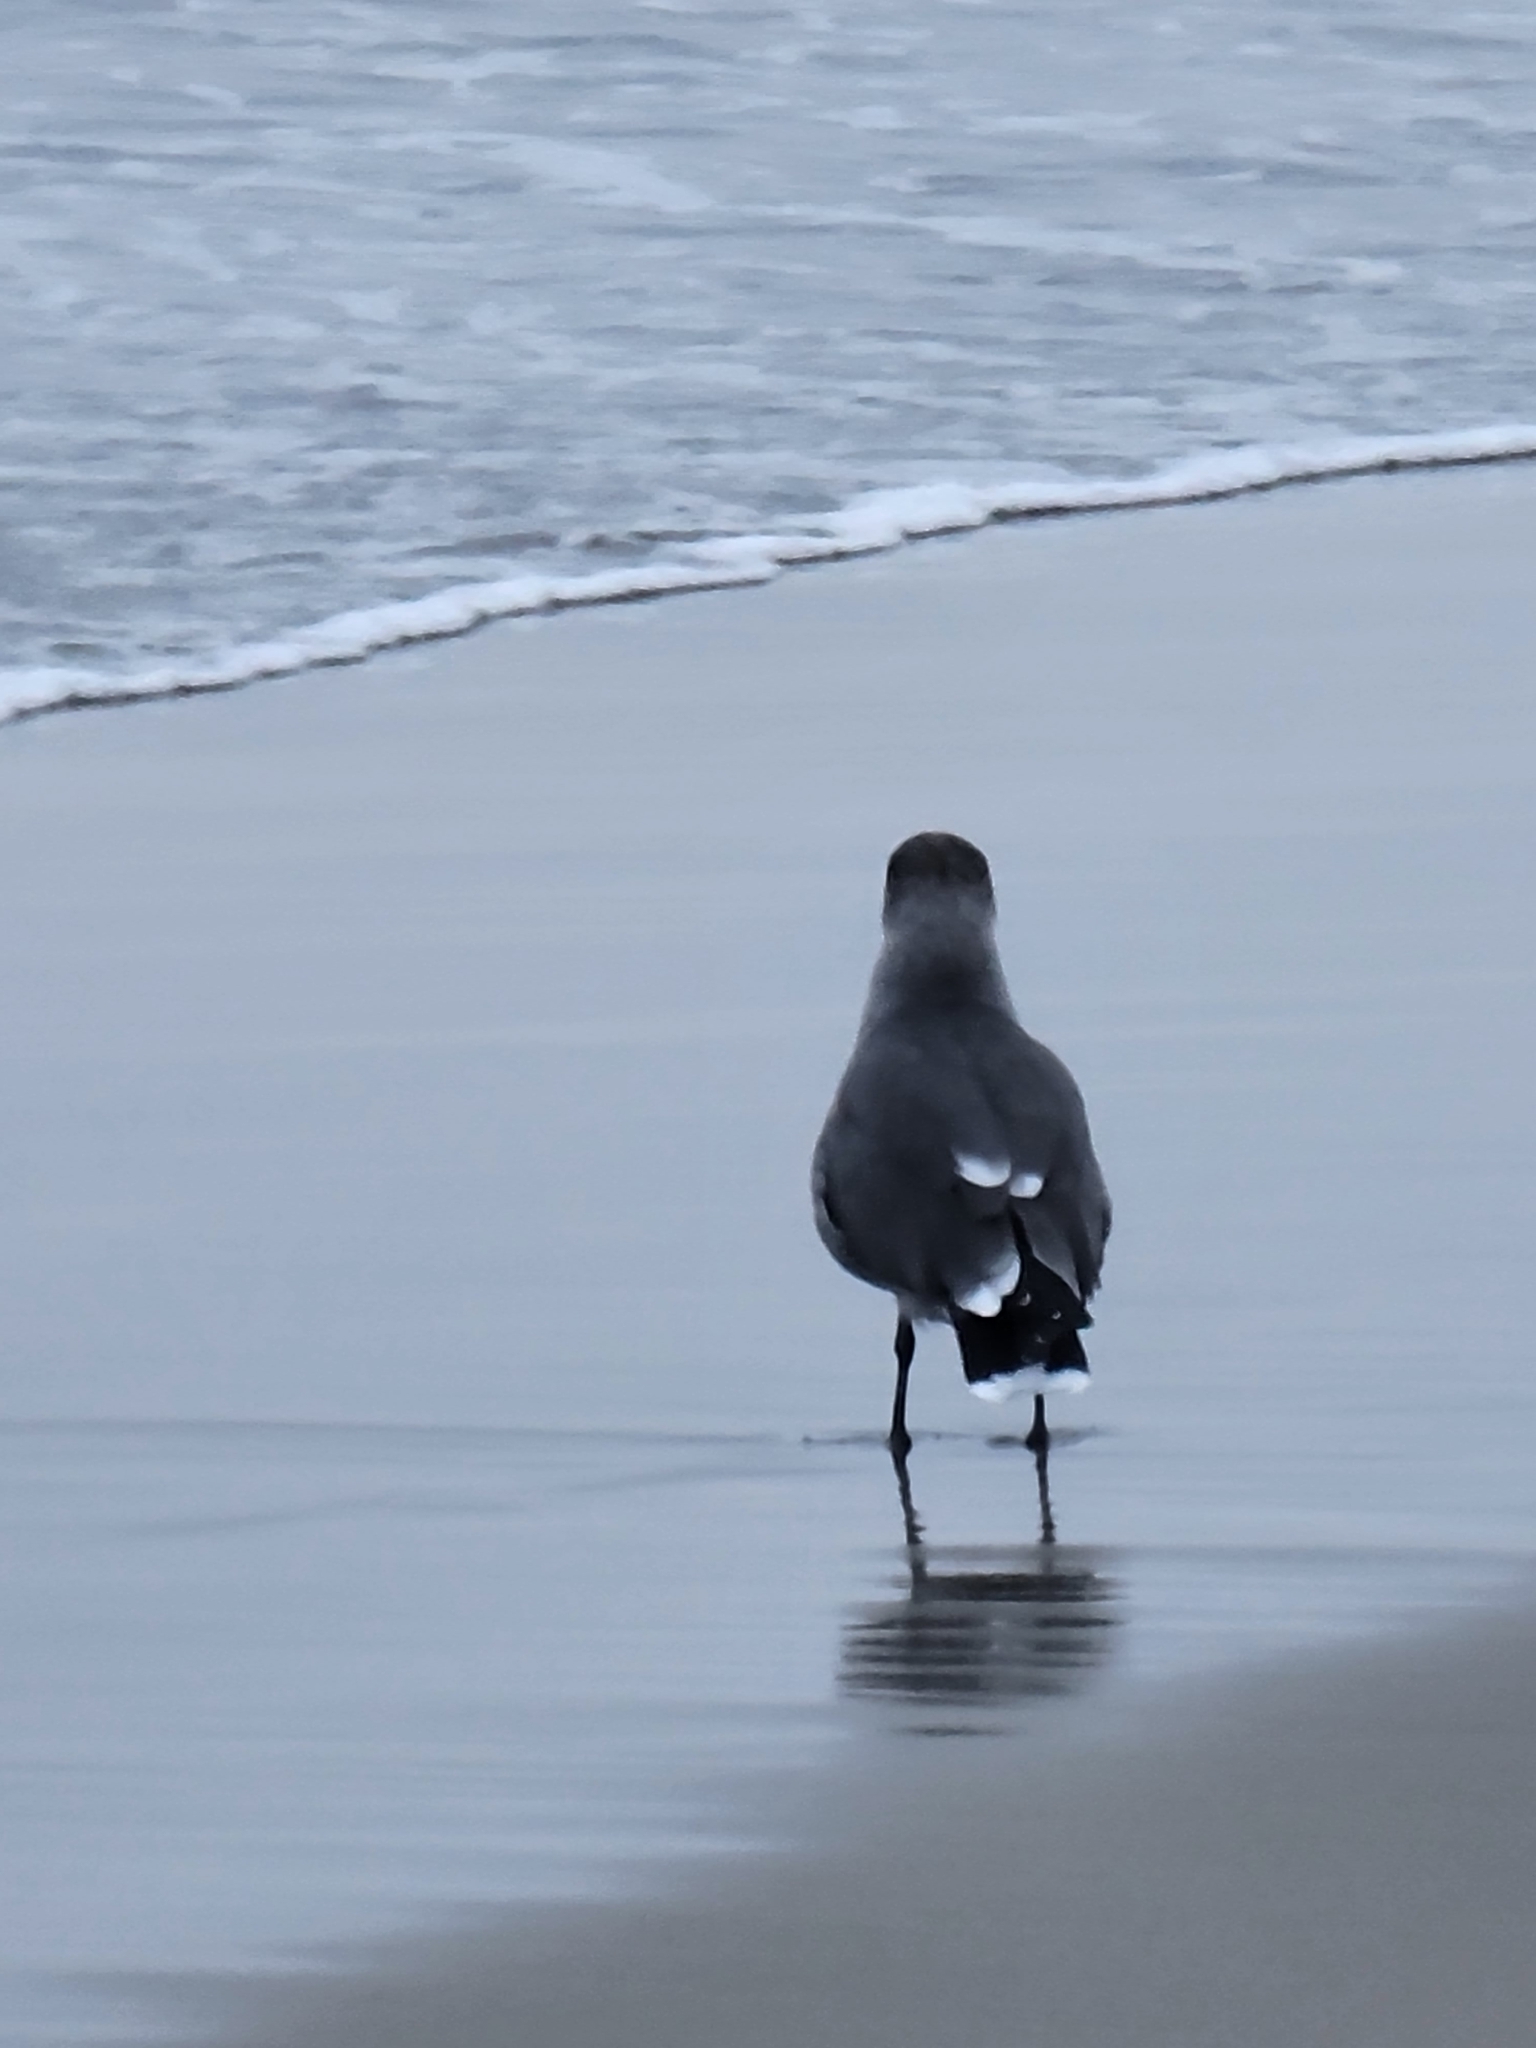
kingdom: Animalia
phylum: Chordata
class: Aves
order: Charadriiformes
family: Laridae
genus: Larus
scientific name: Larus heermanni
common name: Heermann's gull
